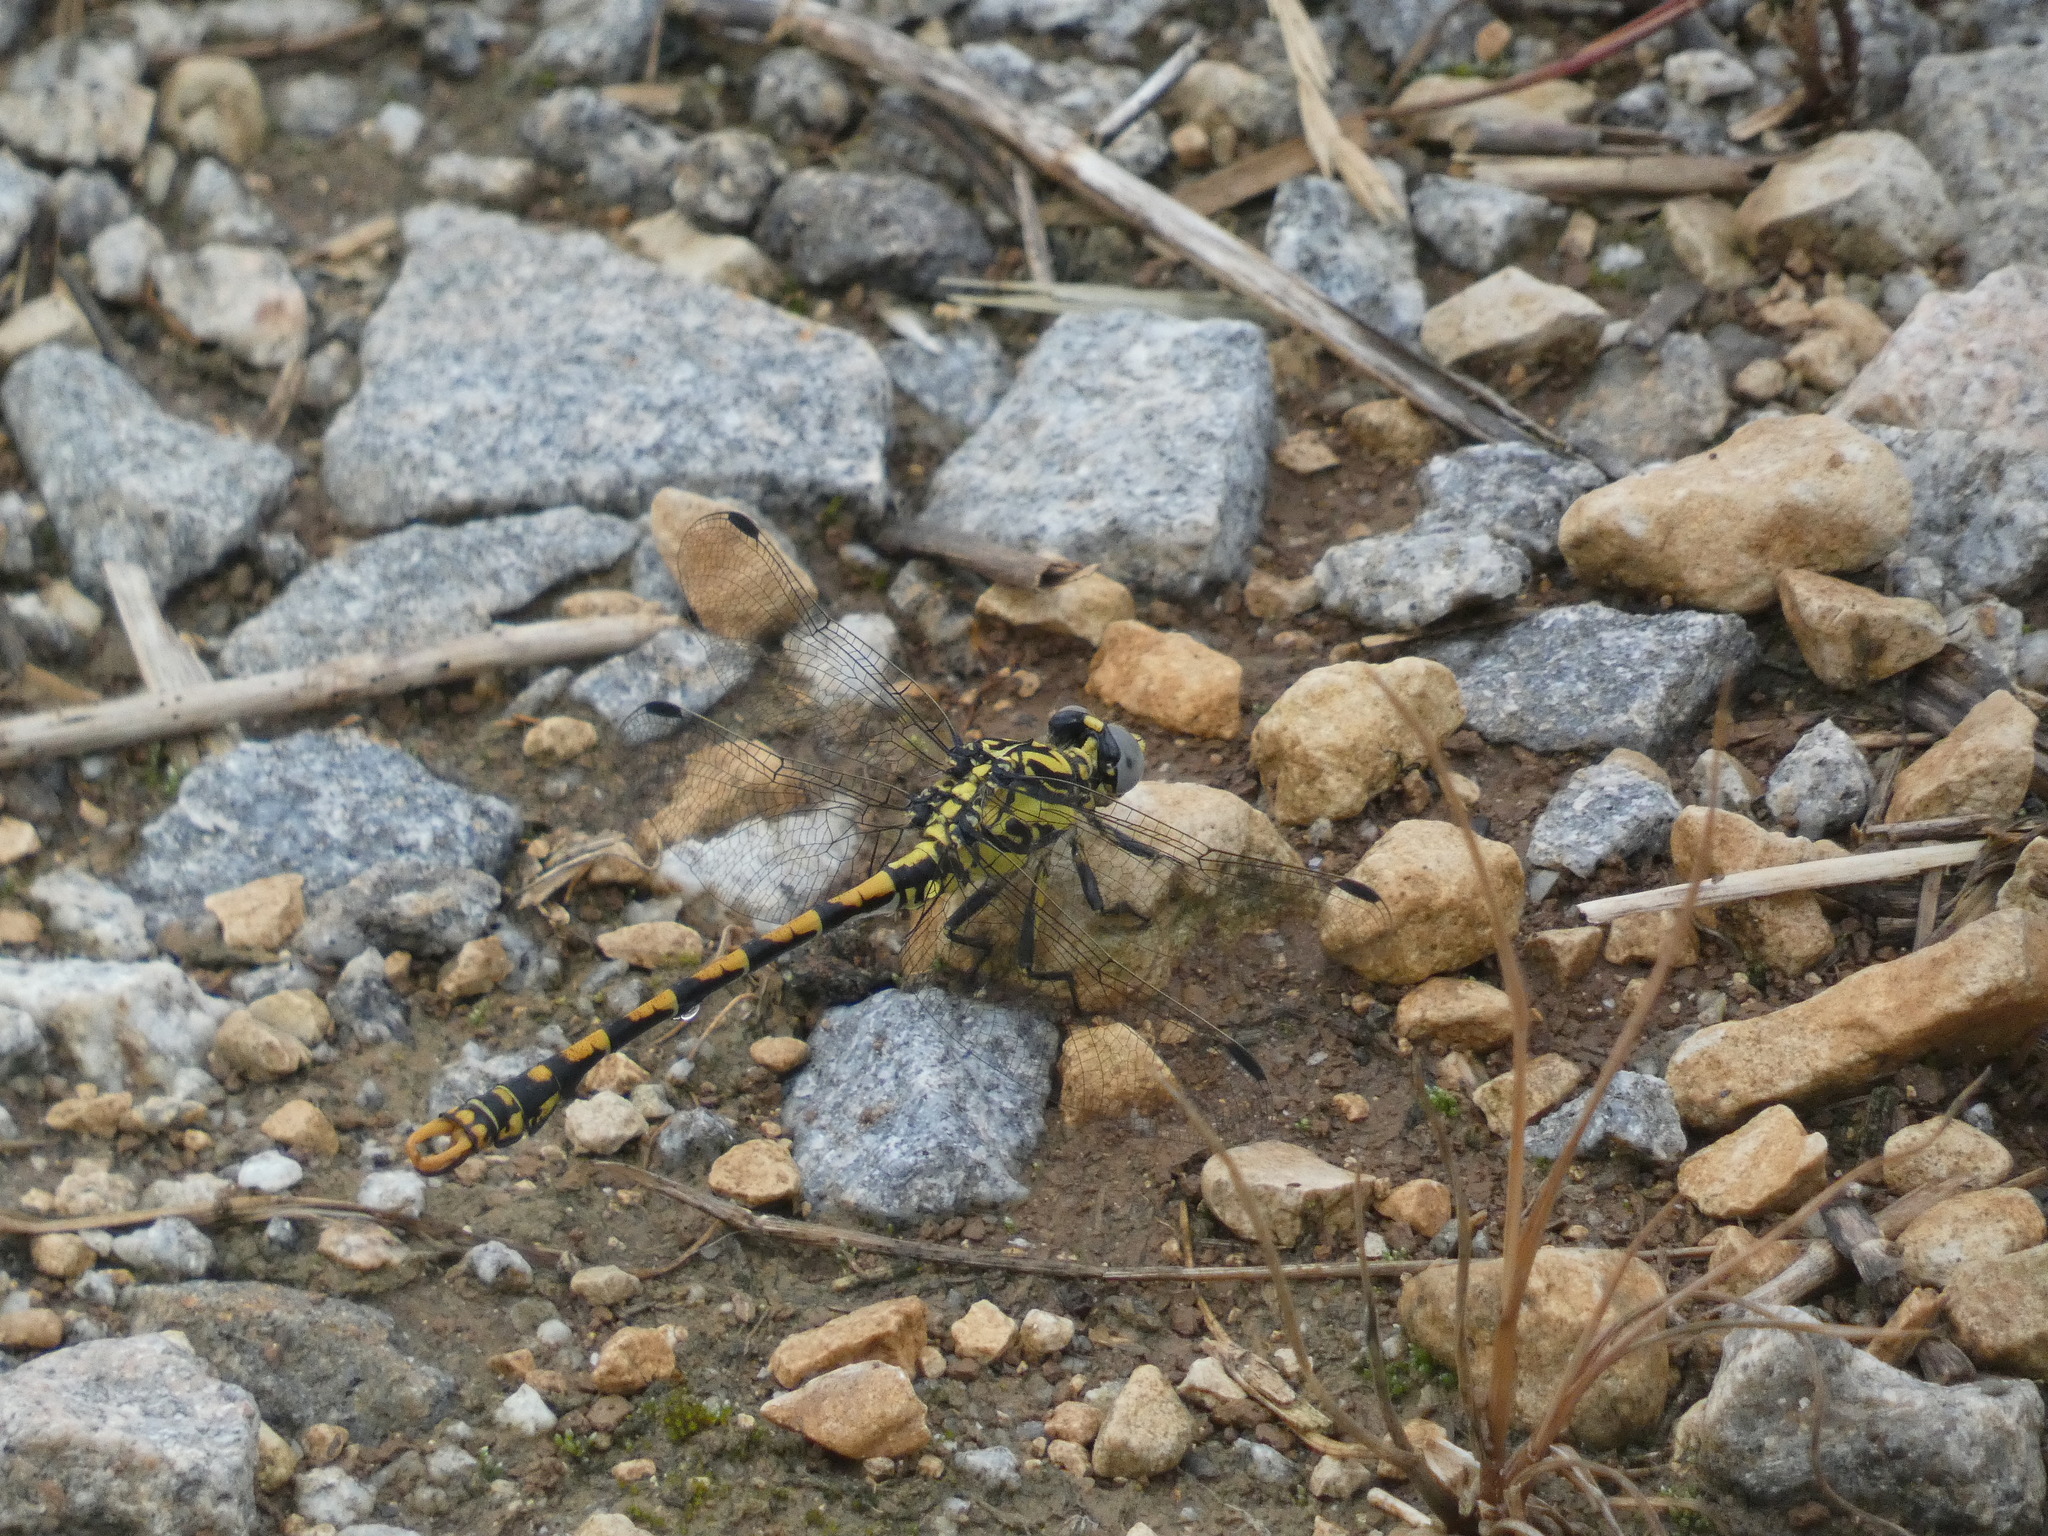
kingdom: Animalia
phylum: Arthropoda
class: Insecta
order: Odonata
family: Gomphidae
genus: Onychogomphus
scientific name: Onychogomphus uncatus
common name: Large pincertail
